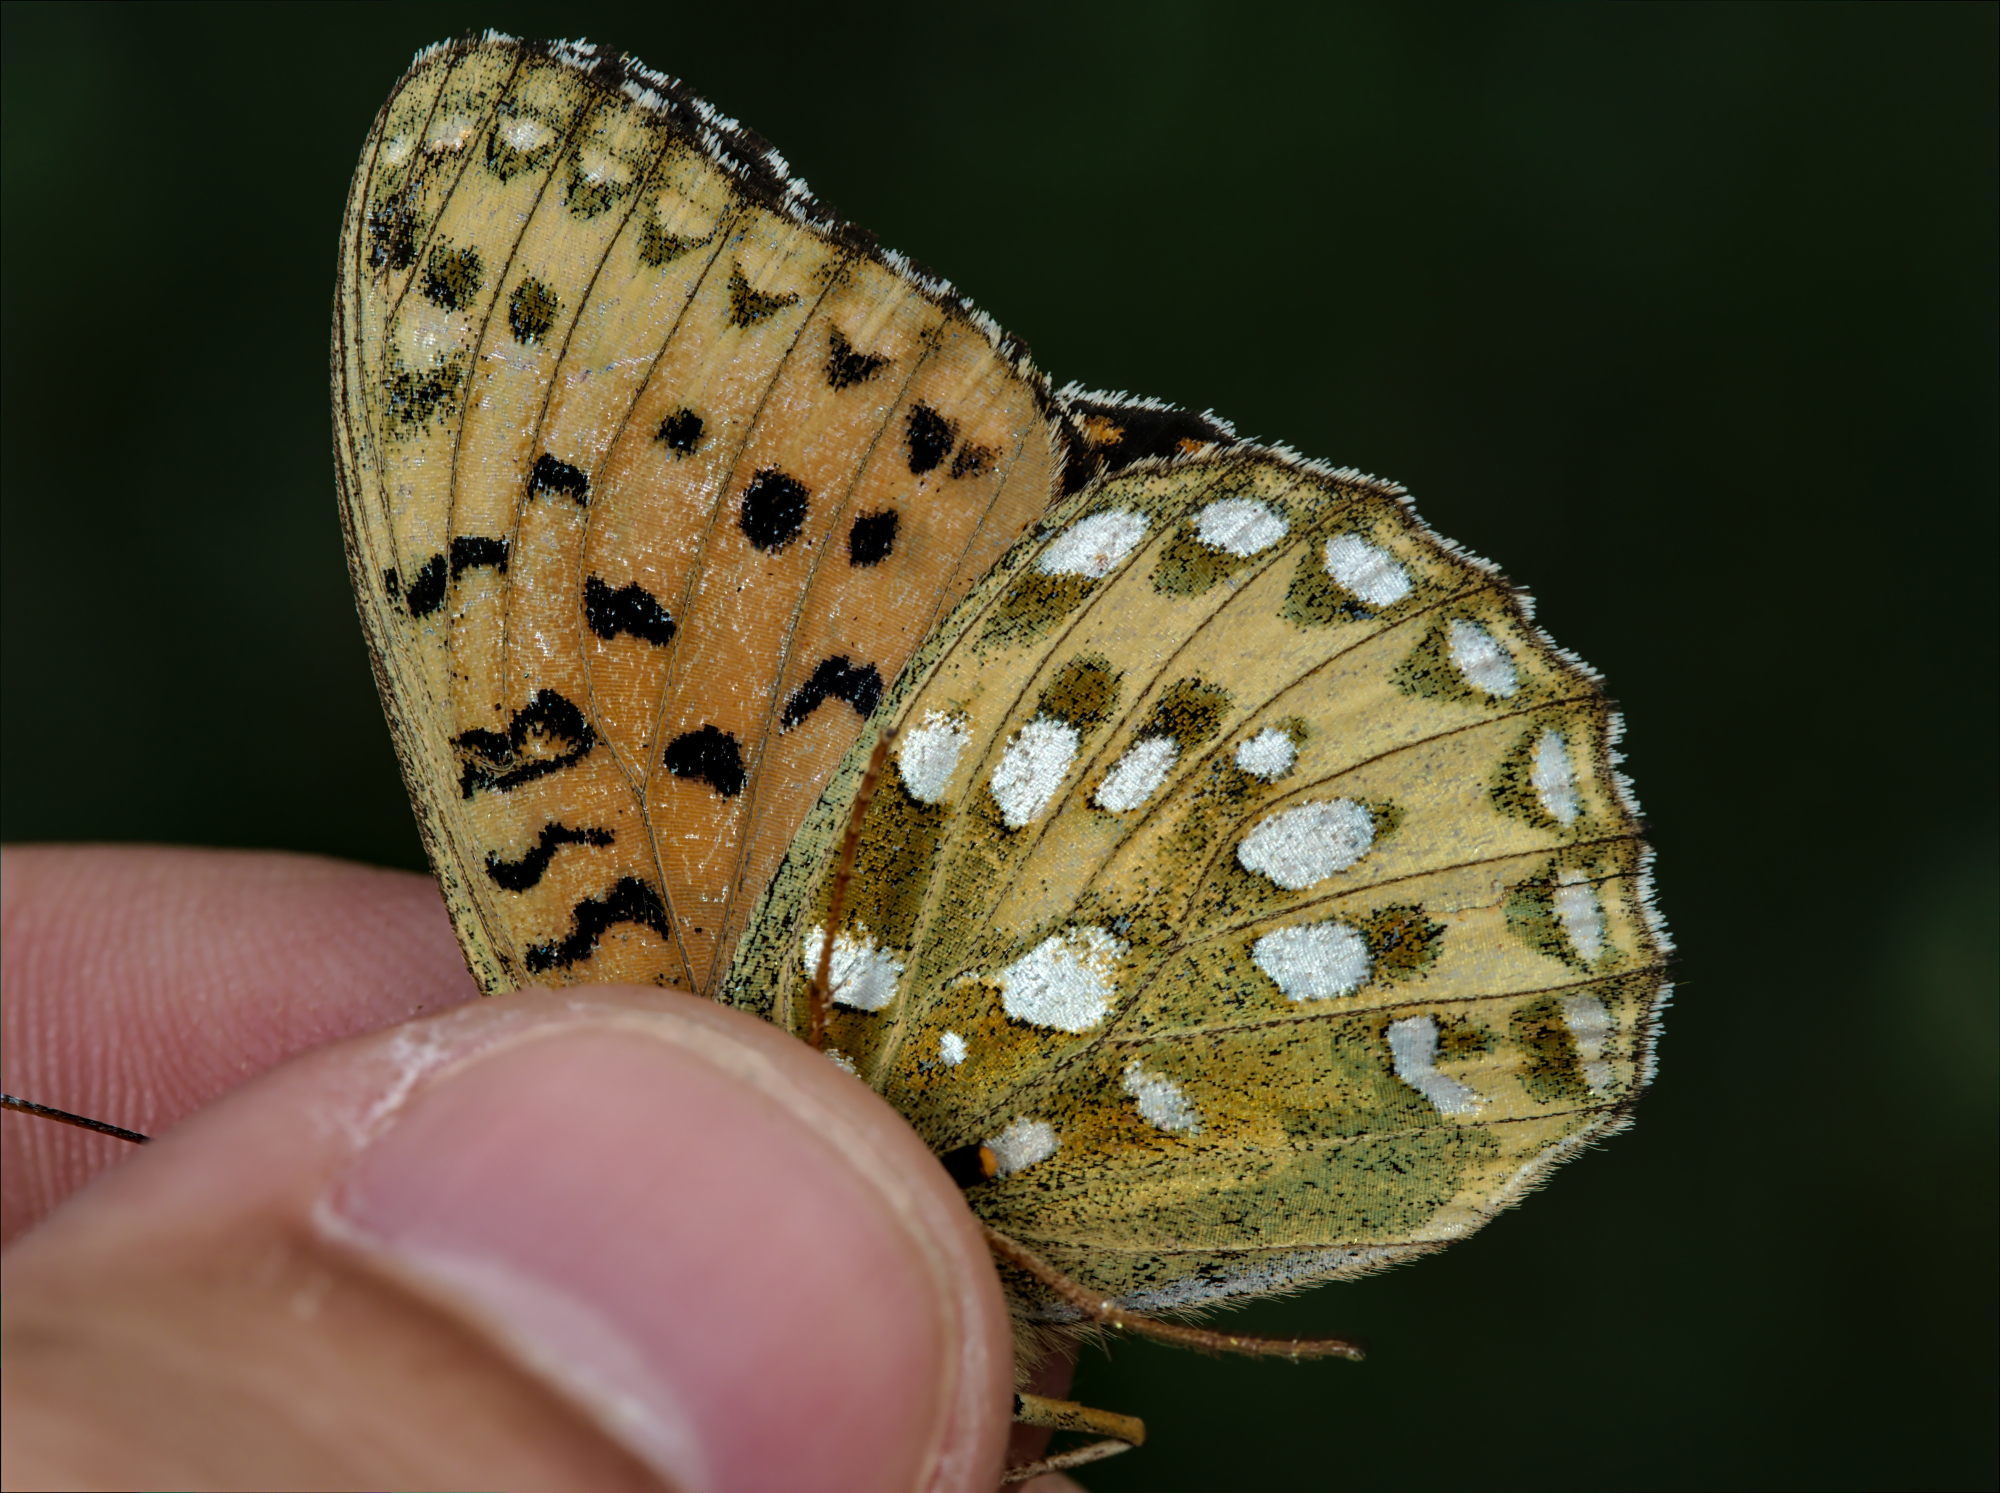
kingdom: Animalia
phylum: Arthropoda
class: Insecta
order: Lepidoptera
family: Nymphalidae
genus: Speyeria
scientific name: Speyeria aglaja
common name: Dark green fritillary
